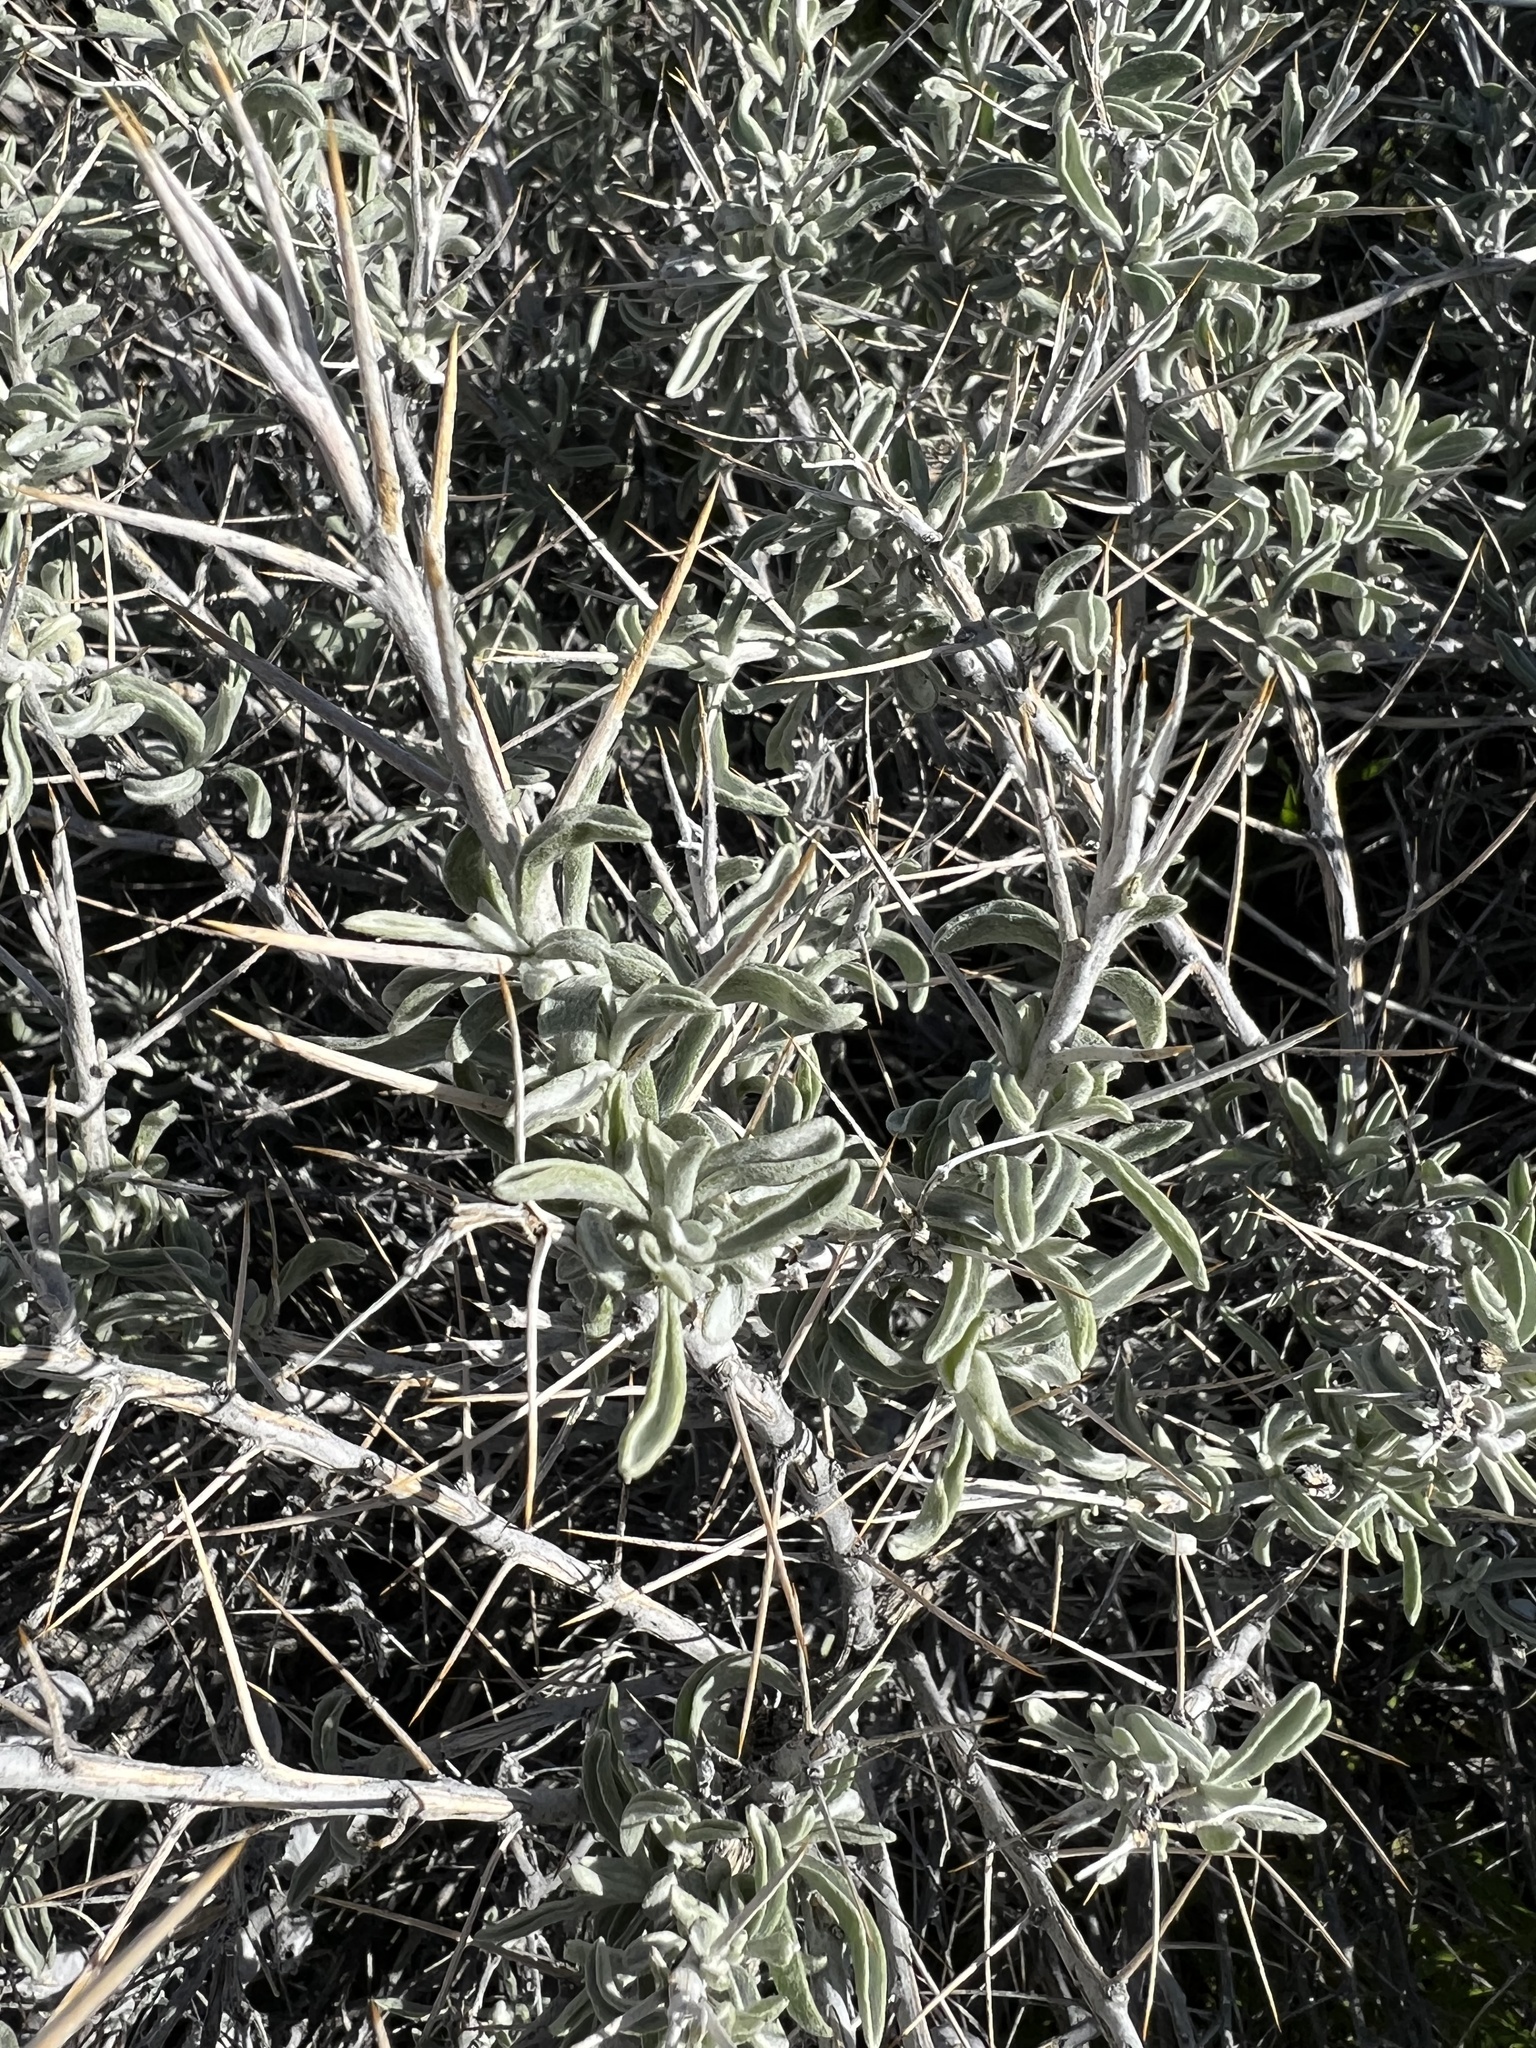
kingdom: Plantae
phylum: Tracheophyta
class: Magnoliopsida
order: Asterales
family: Asteraceae
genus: Tetradymia
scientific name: Tetradymia stenolepis
